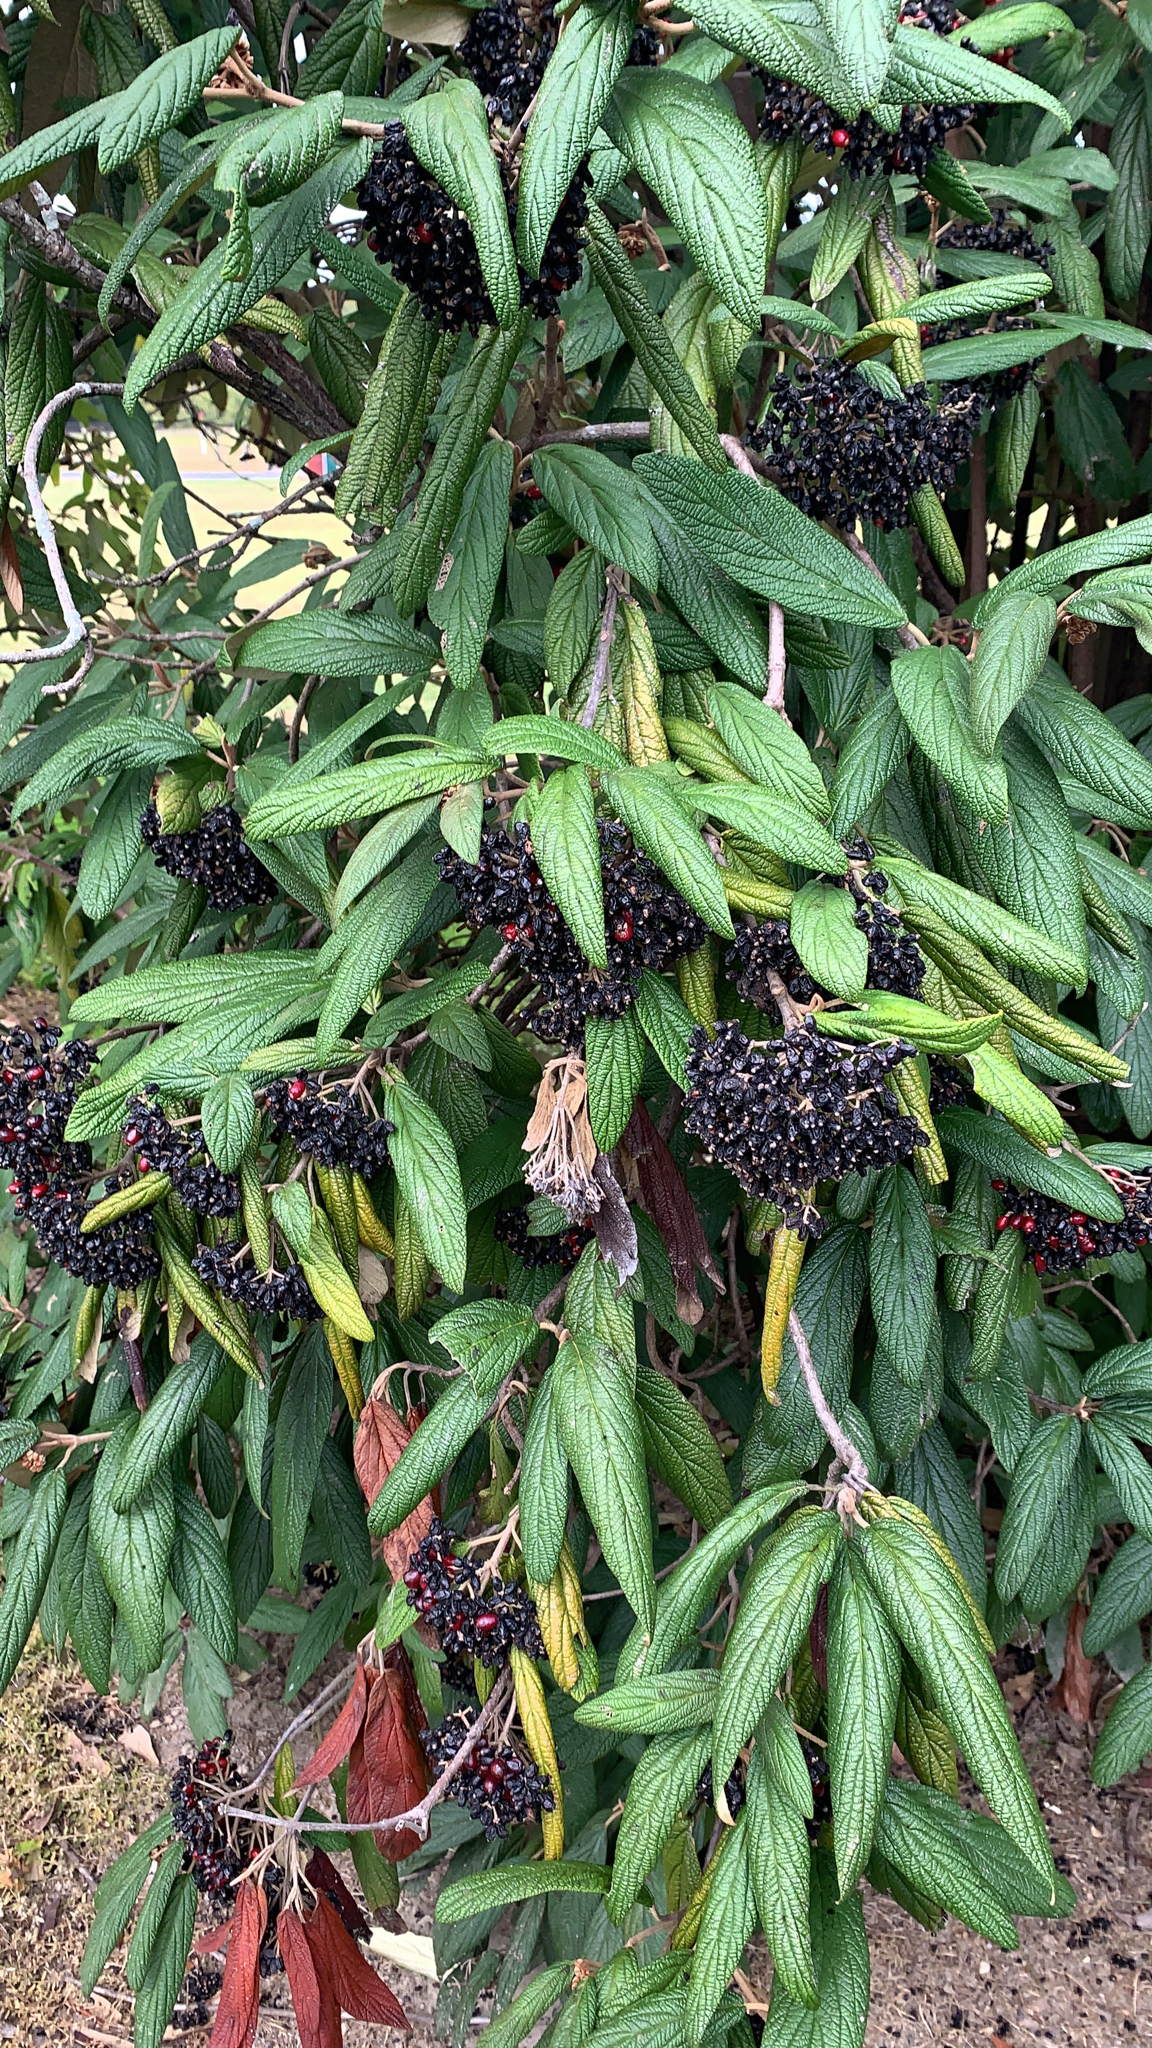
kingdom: Plantae
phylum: Tracheophyta
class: Magnoliopsida
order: Dipsacales
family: Viburnaceae
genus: Viburnum
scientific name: Viburnum rhytidophyllum
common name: Wrinkled viburnum
